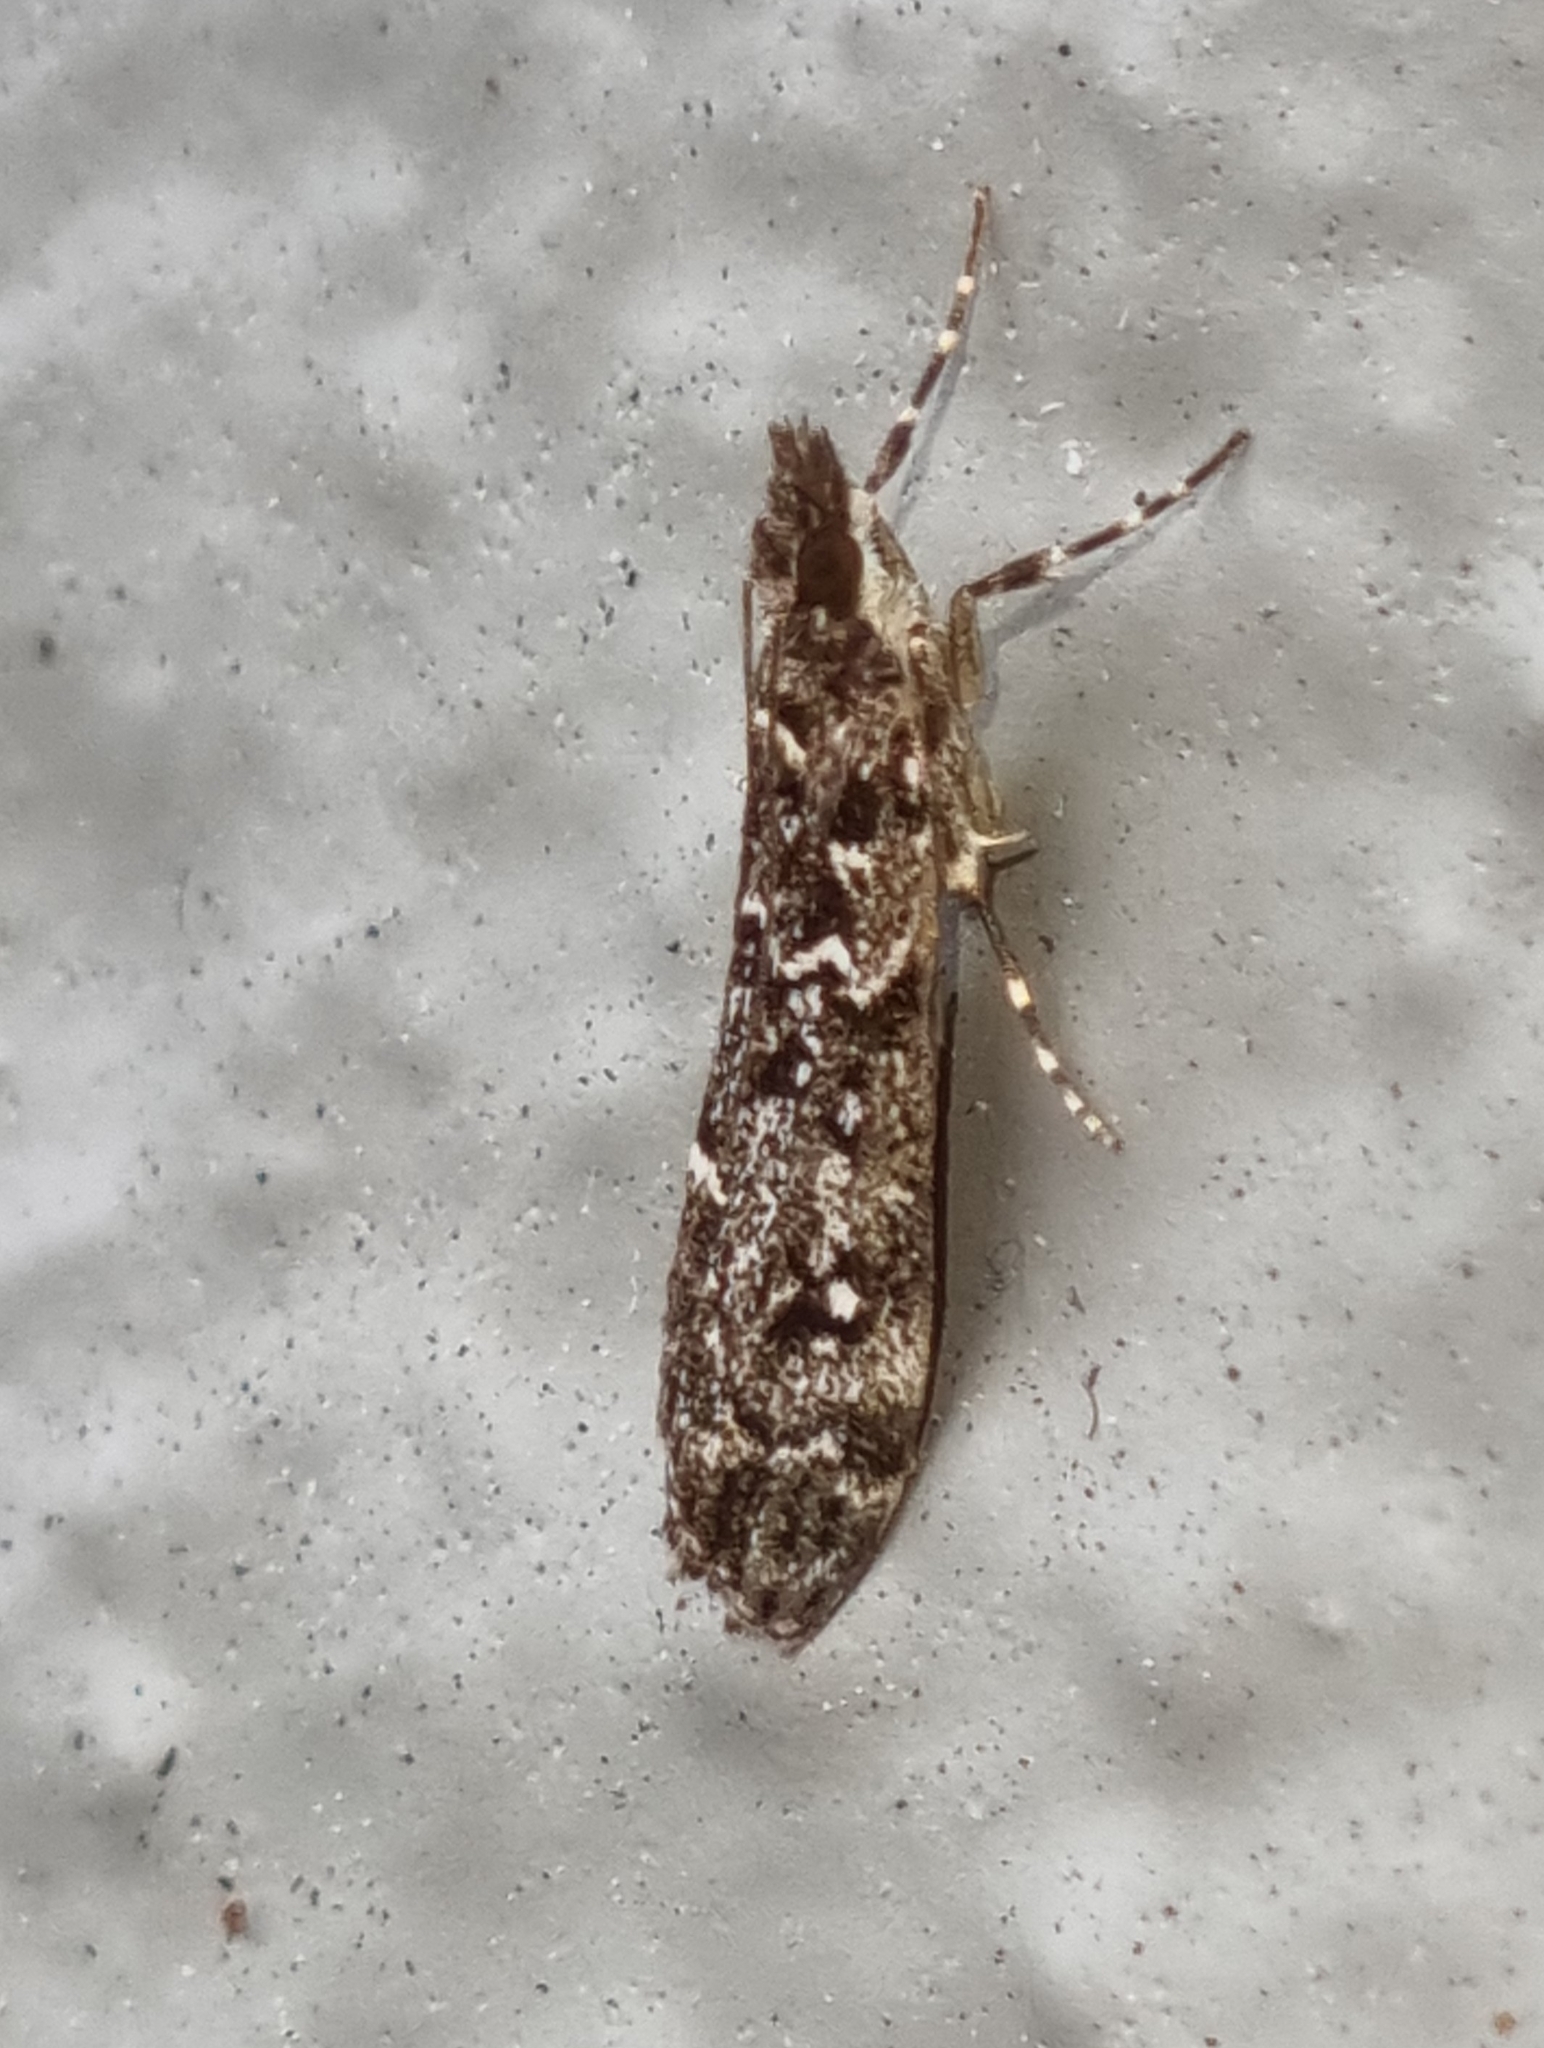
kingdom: Animalia
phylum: Arthropoda
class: Insecta
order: Lepidoptera
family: Crambidae
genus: Eudonia
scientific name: Eudonia philerga
